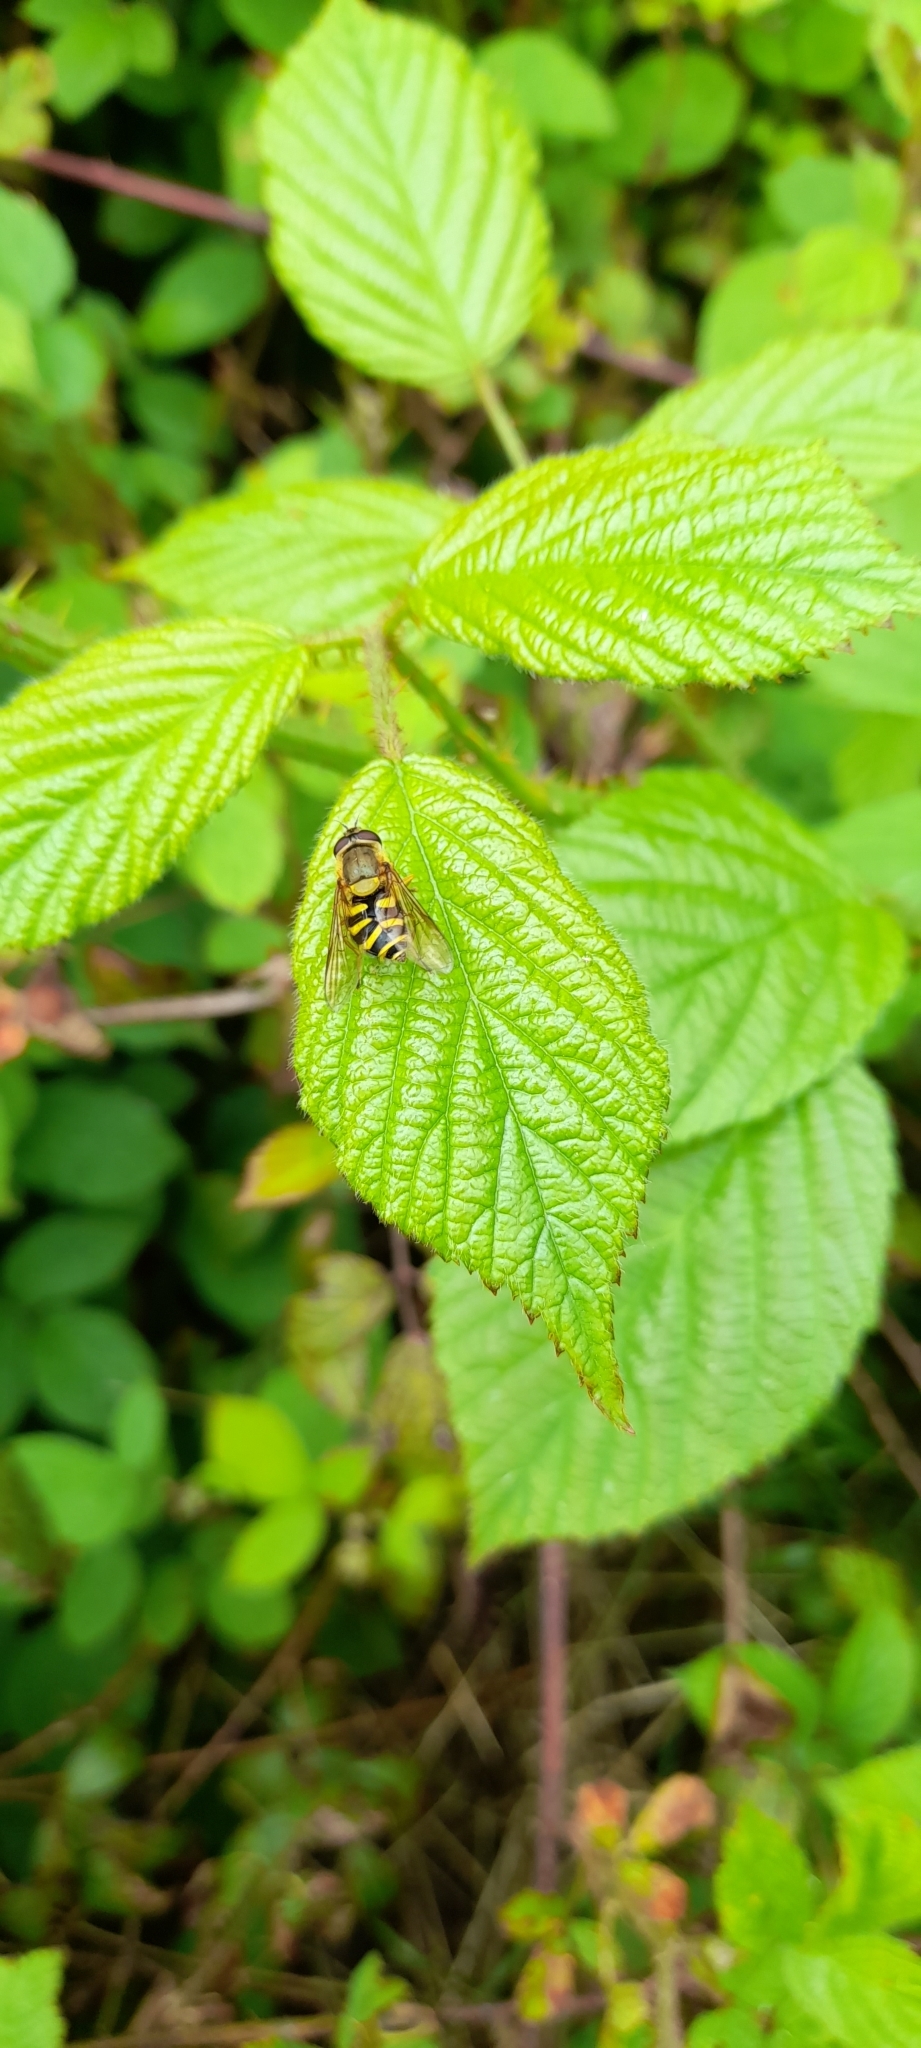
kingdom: Animalia
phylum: Arthropoda
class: Insecta
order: Diptera
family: Syrphidae
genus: Syrphus
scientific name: Syrphus
